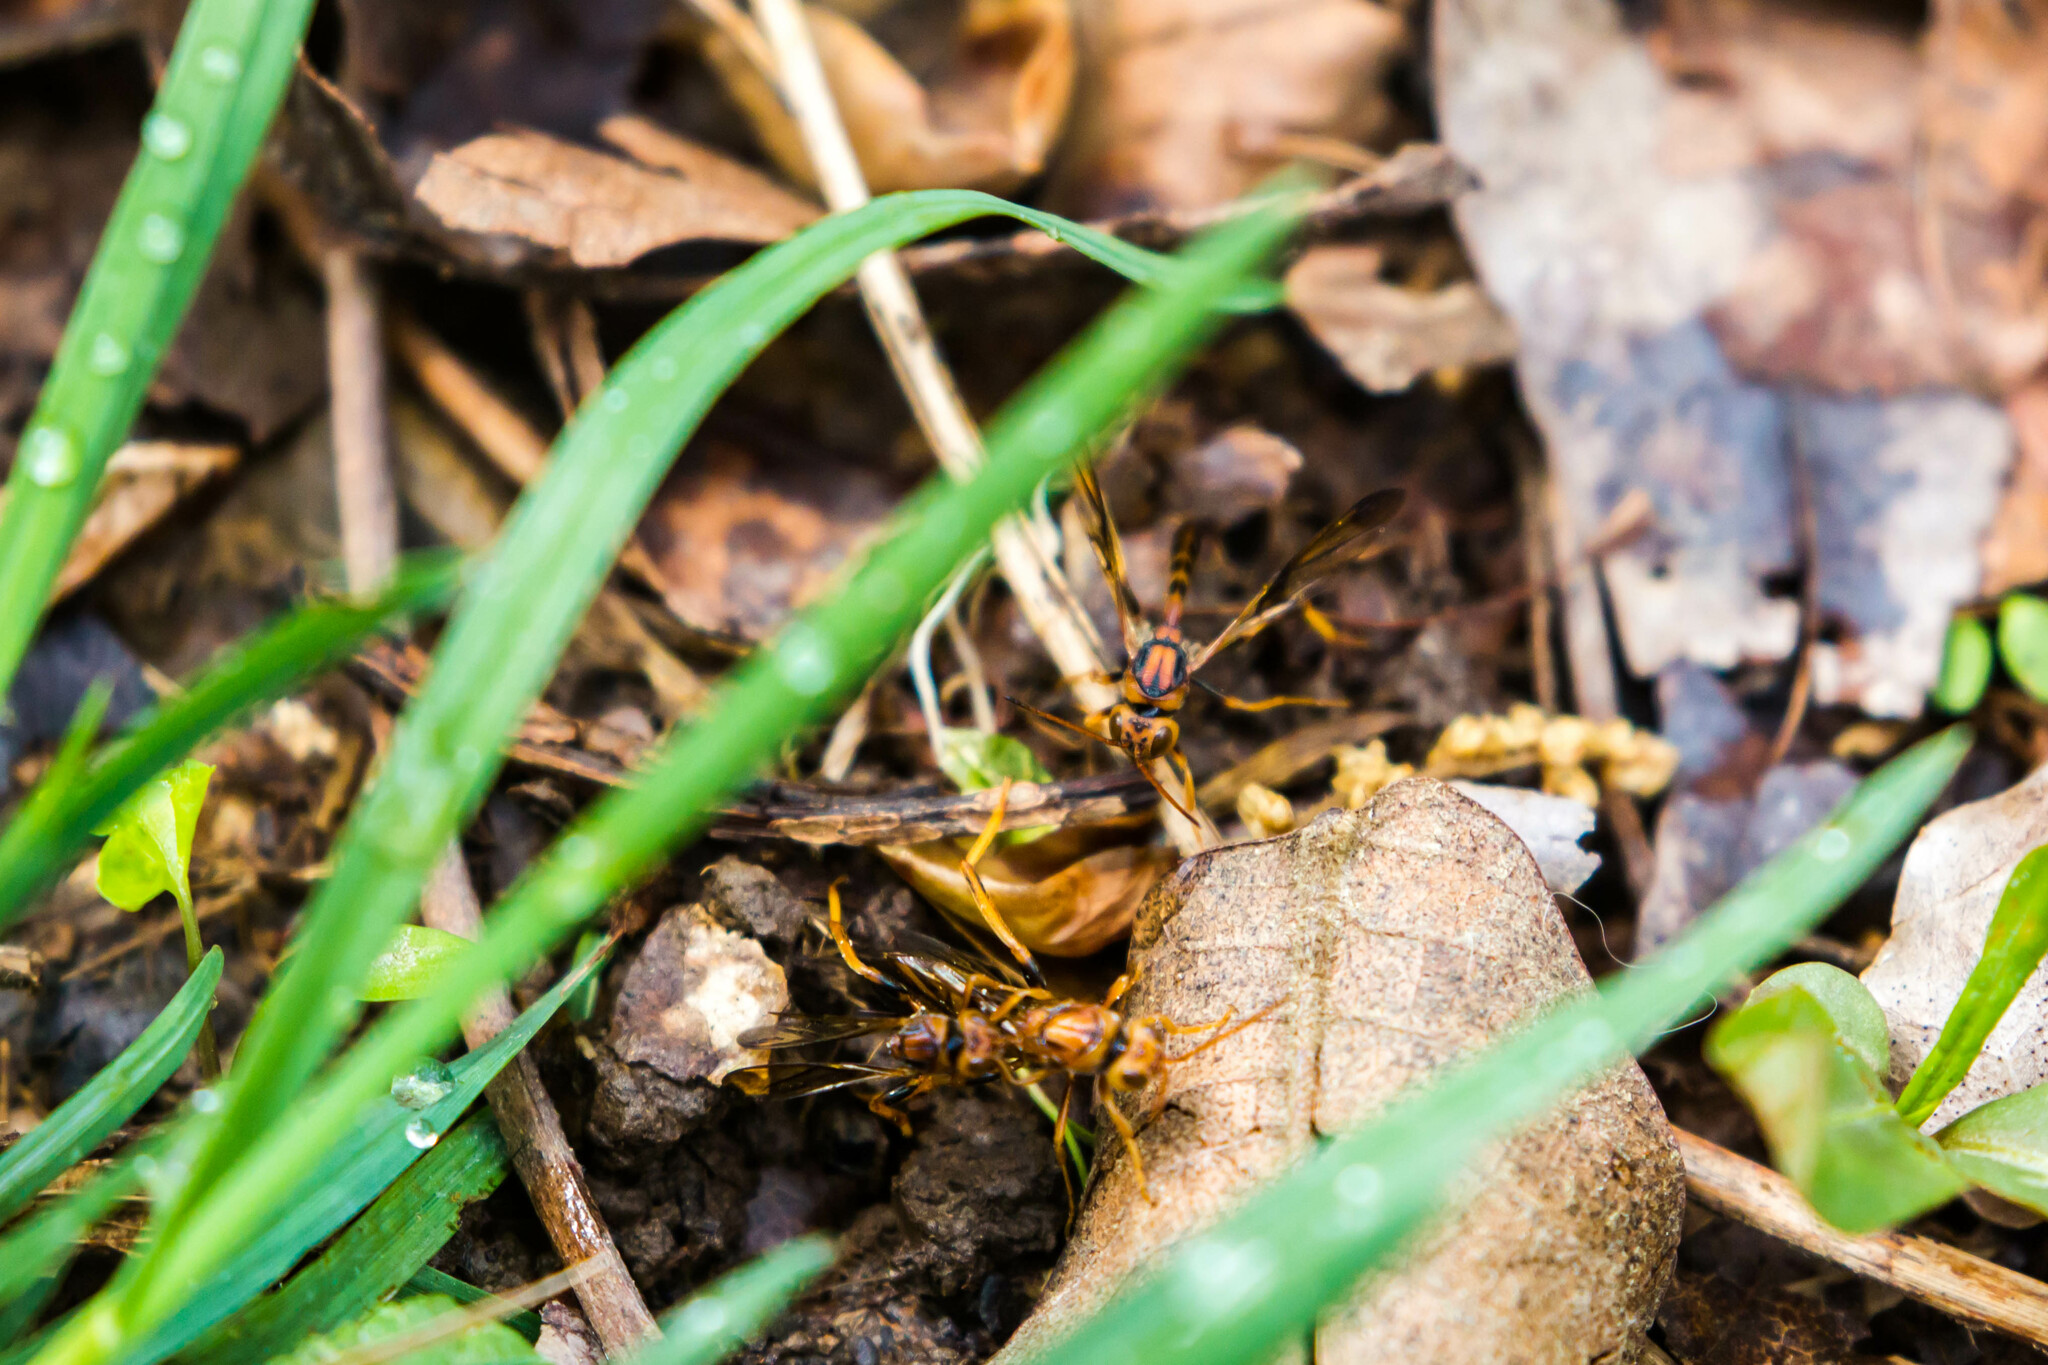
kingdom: Animalia
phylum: Arthropoda
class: Insecta
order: Hymenoptera
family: Ibaliidae
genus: Ibalia
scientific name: Ibalia anceps
